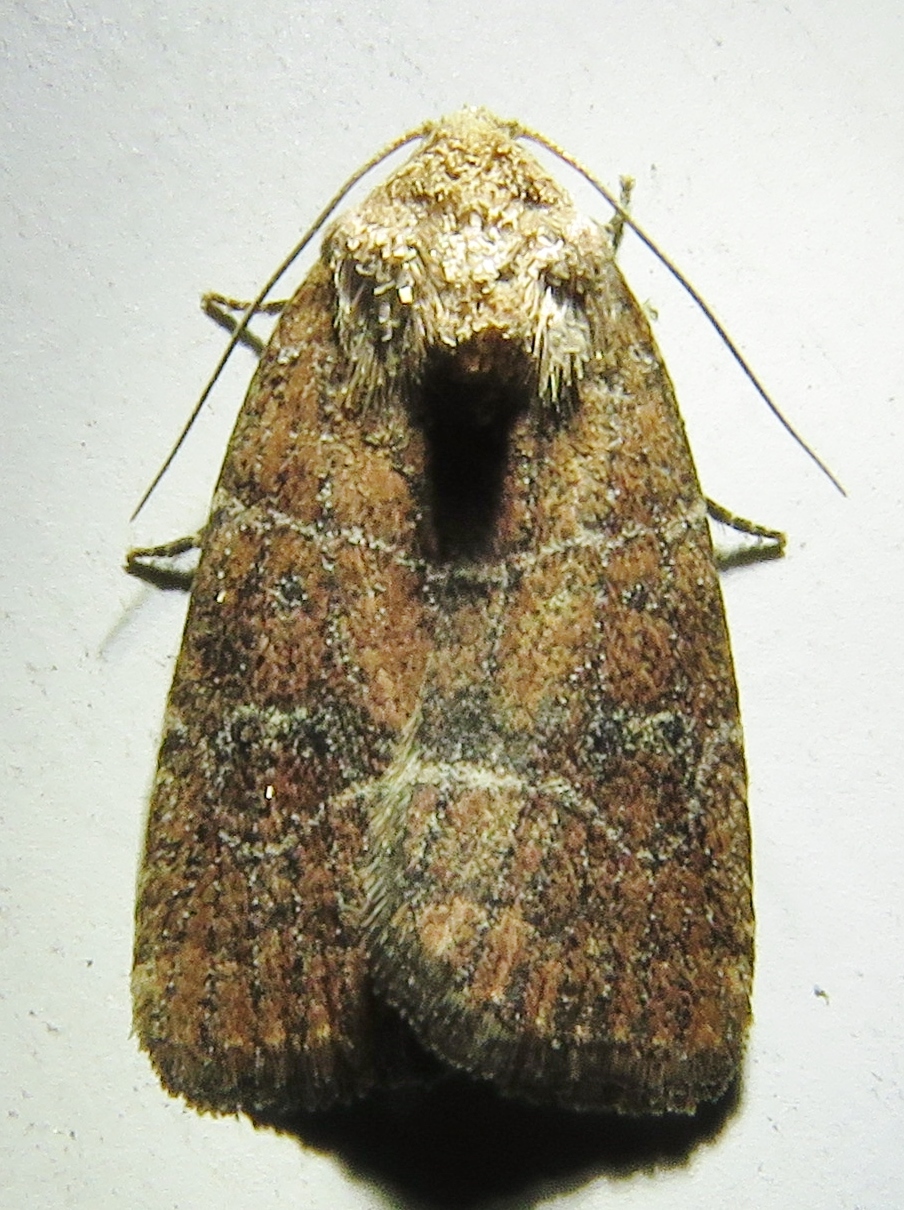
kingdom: Animalia
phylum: Arthropoda
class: Insecta
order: Lepidoptera
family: Noctuidae
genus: Elaphria
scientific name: Elaphria grata
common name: Grateful midget moth
